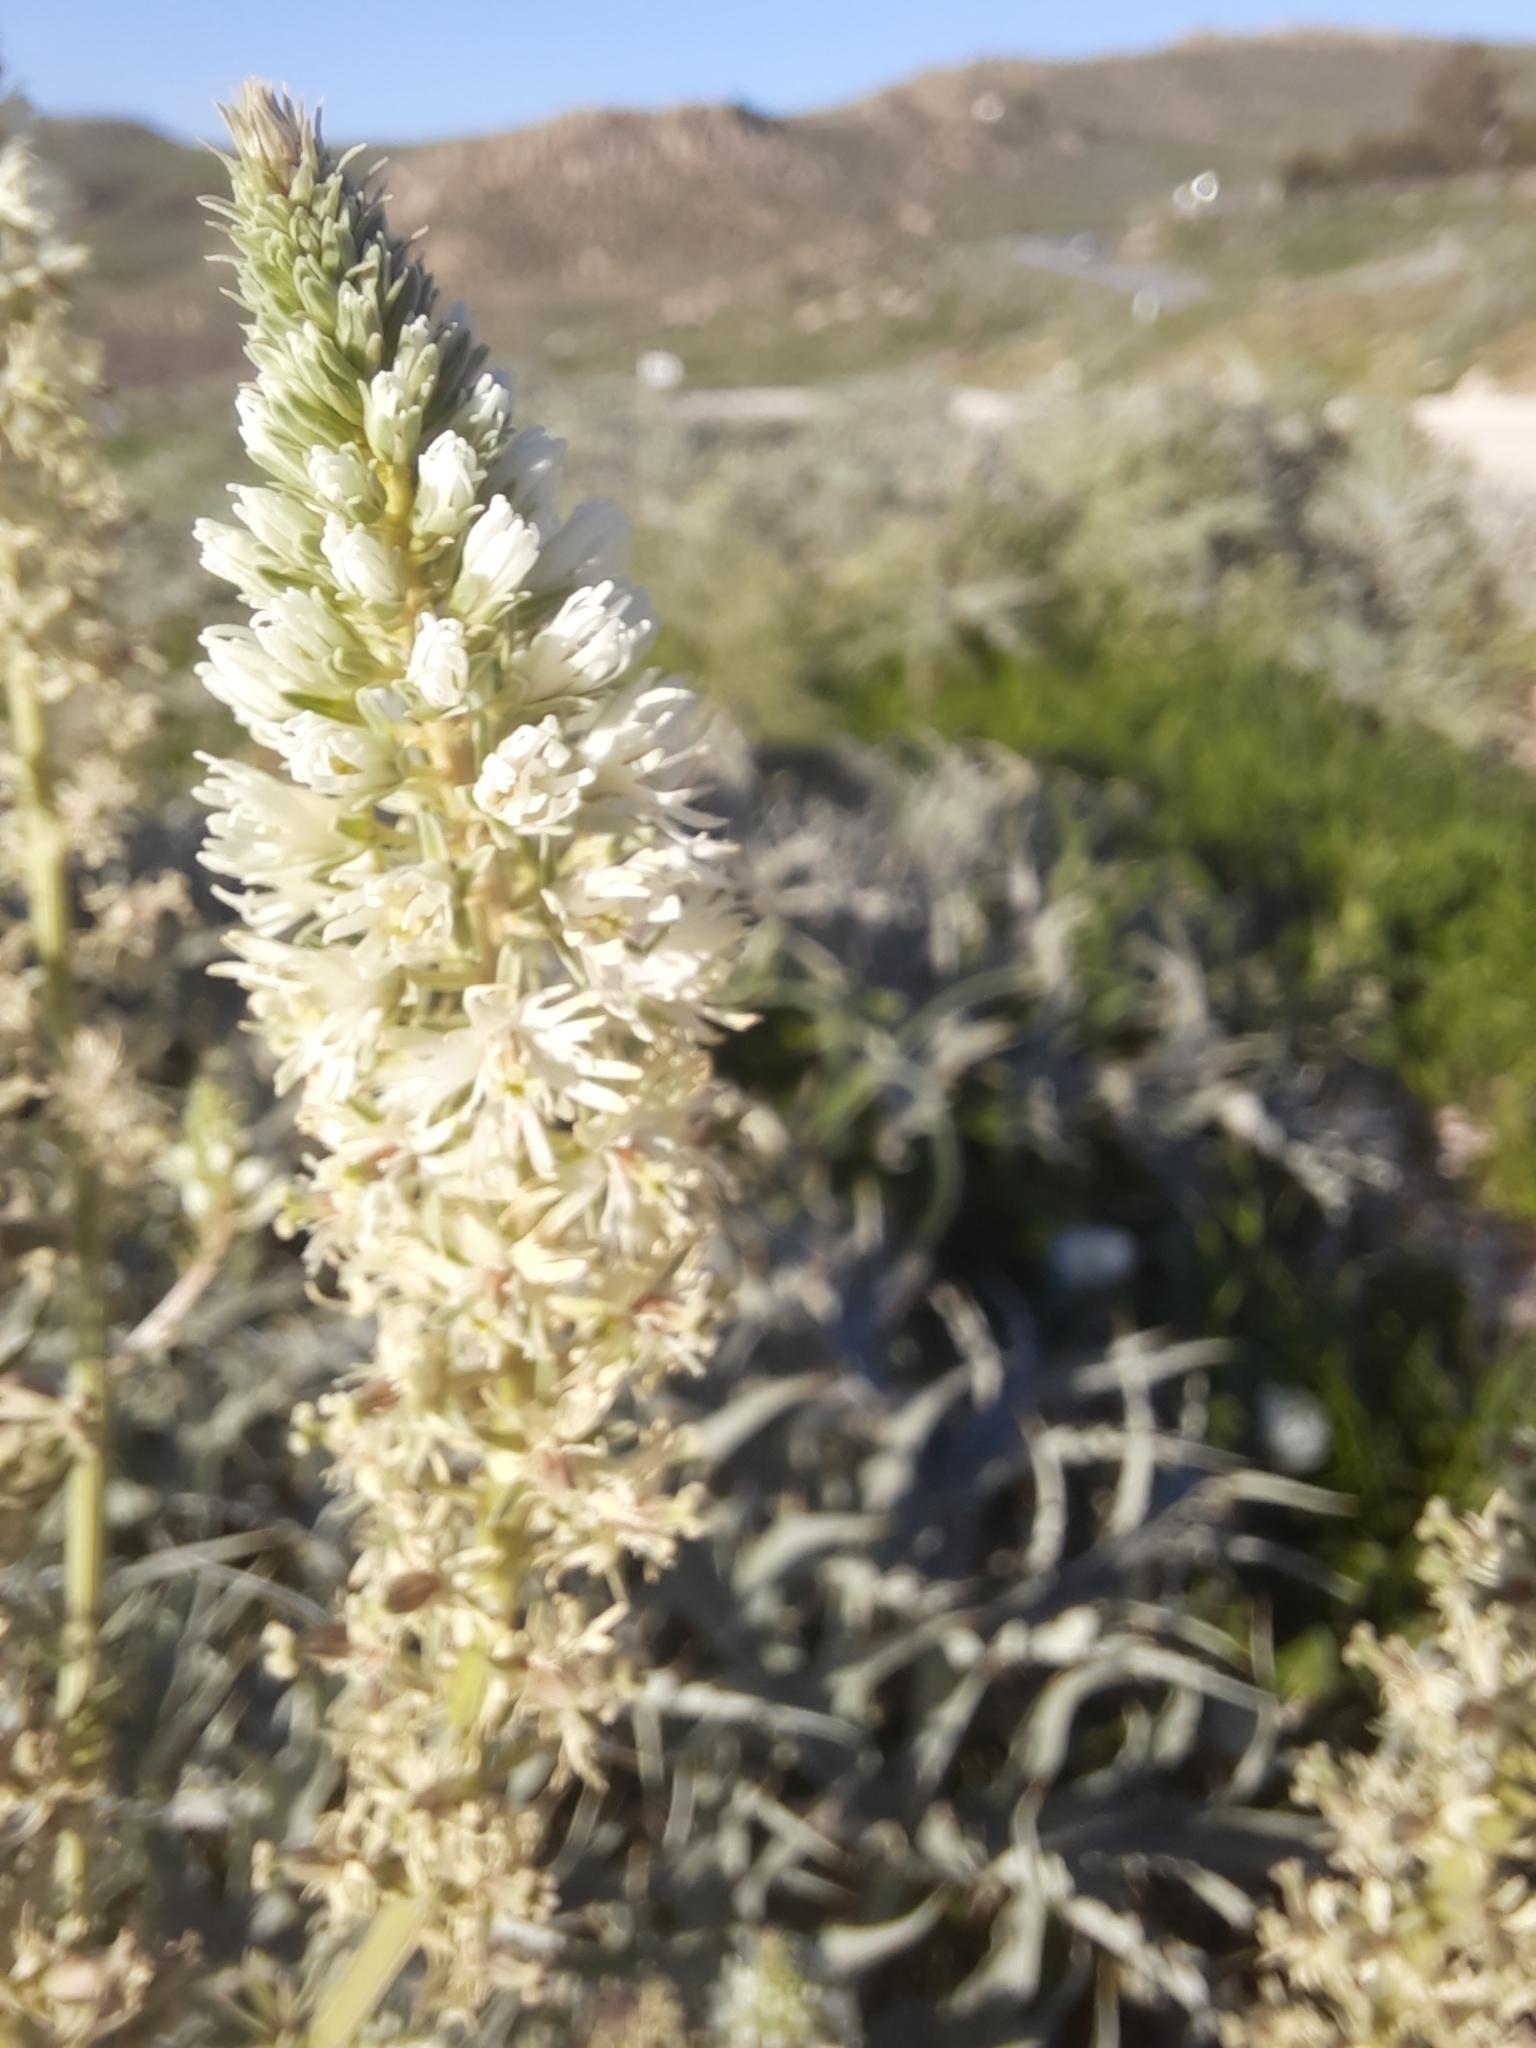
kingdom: Plantae
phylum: Tracheophyta
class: Magnoliopsida
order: Brassicales
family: Resedaceae
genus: Reseda
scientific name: Reseda alba
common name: White mignonette
